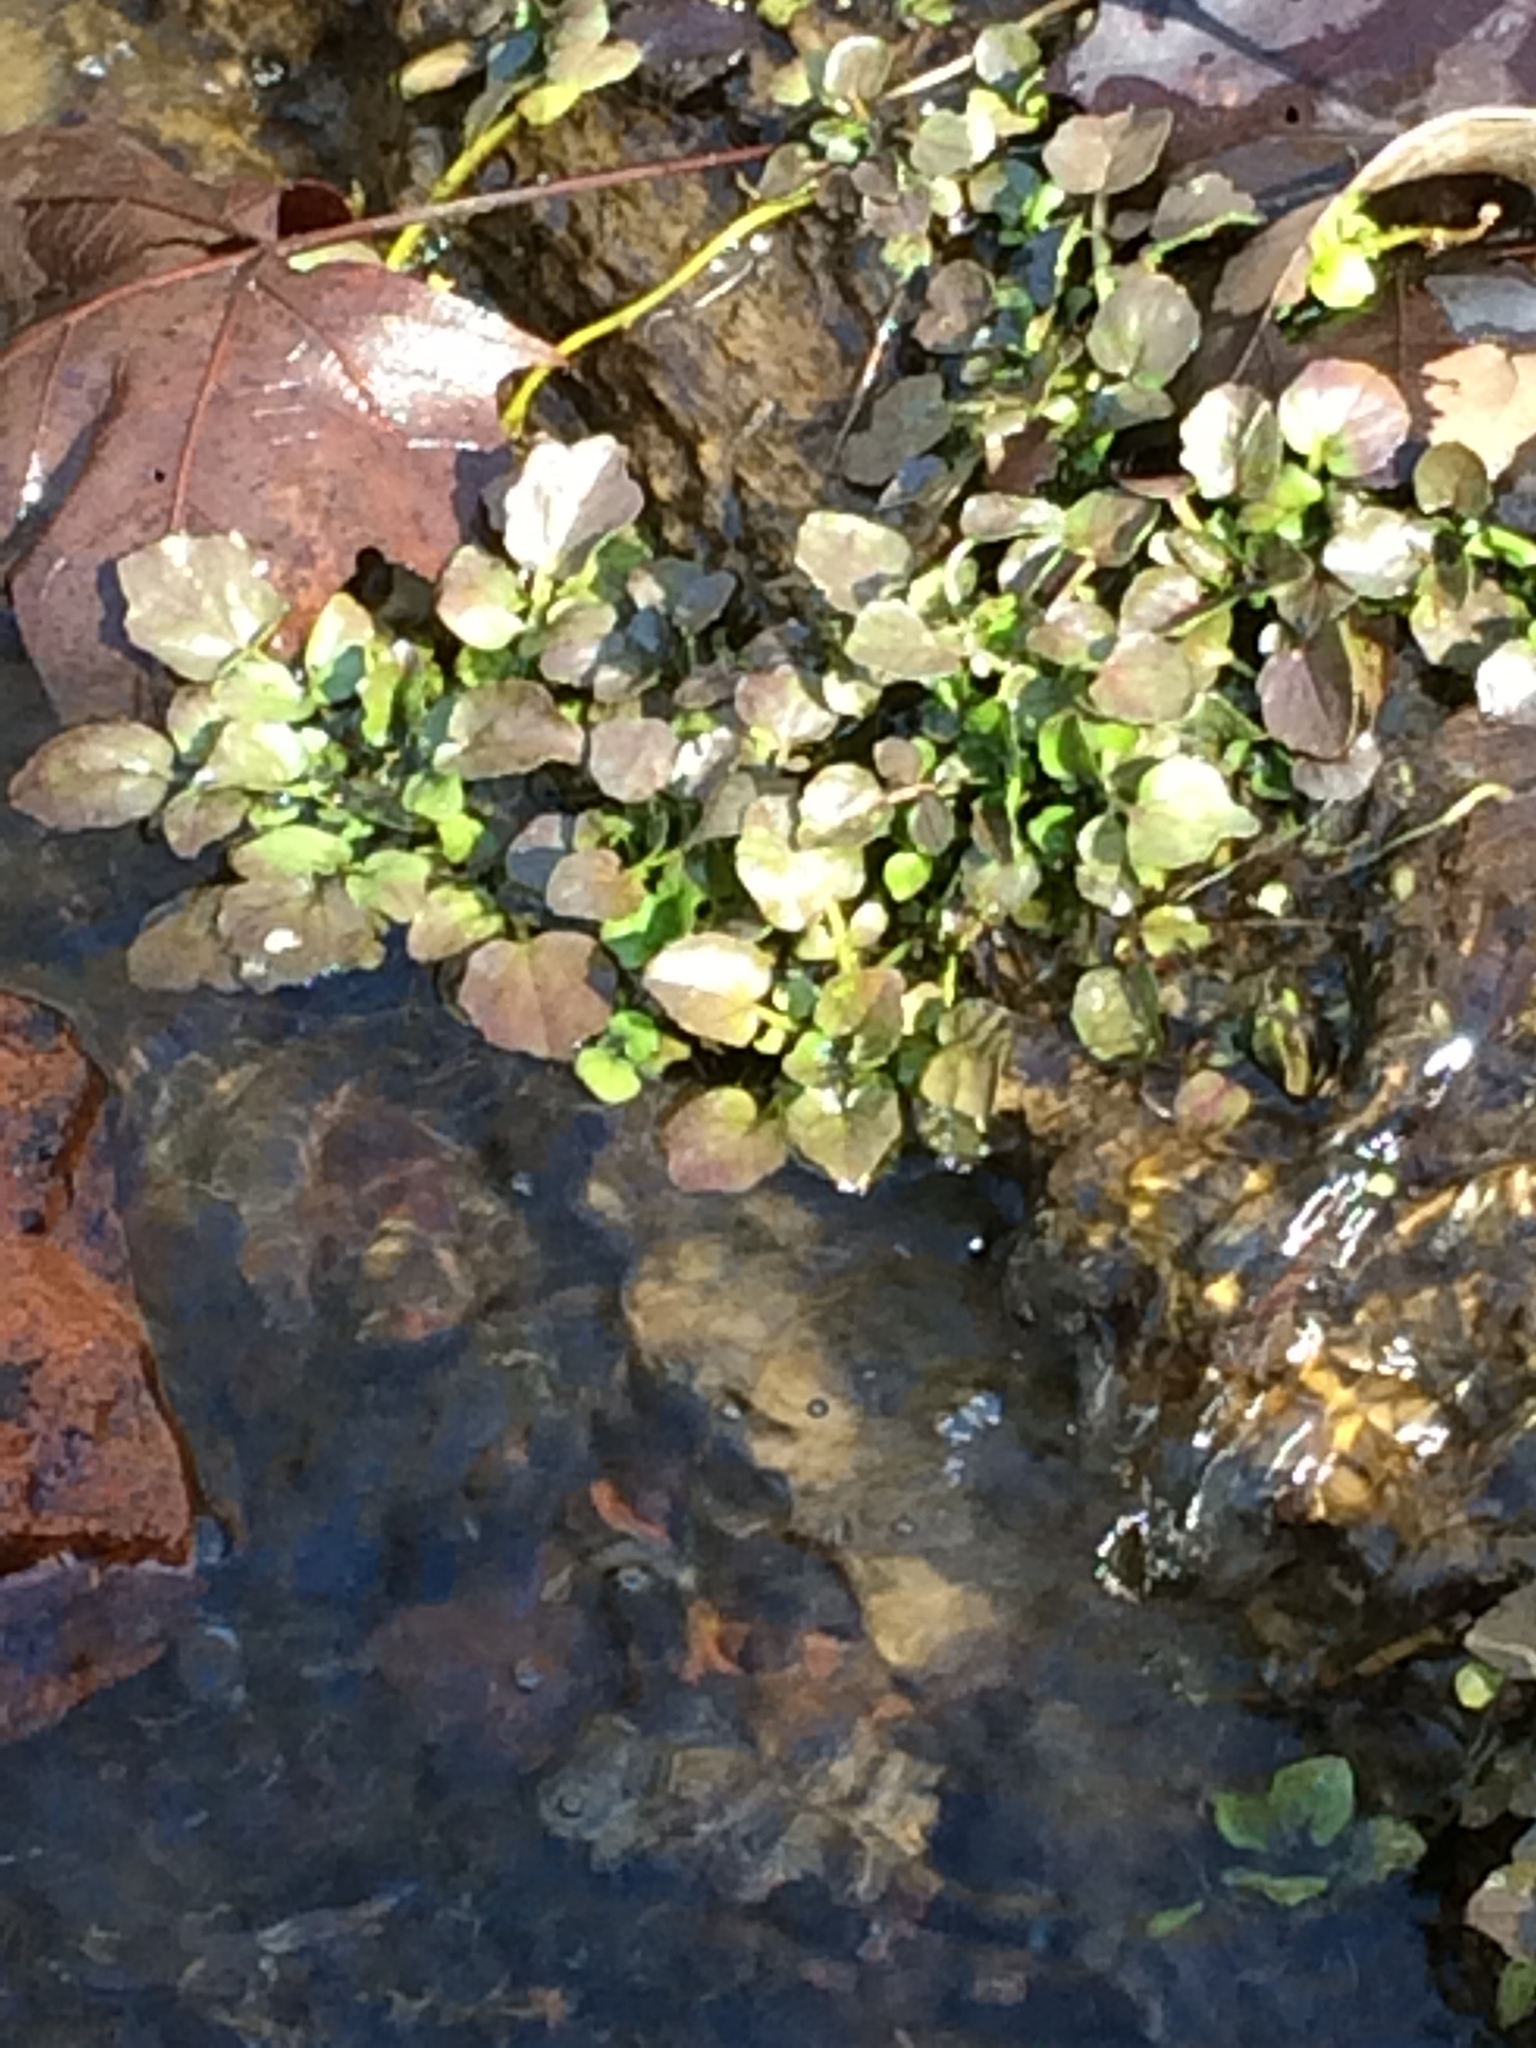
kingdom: Plantae
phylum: Tracheophyta
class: Magnoliopsida
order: Brassicales
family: Brassicaceae
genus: Nasturtium
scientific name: Nasturtium officinale
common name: Watercress
